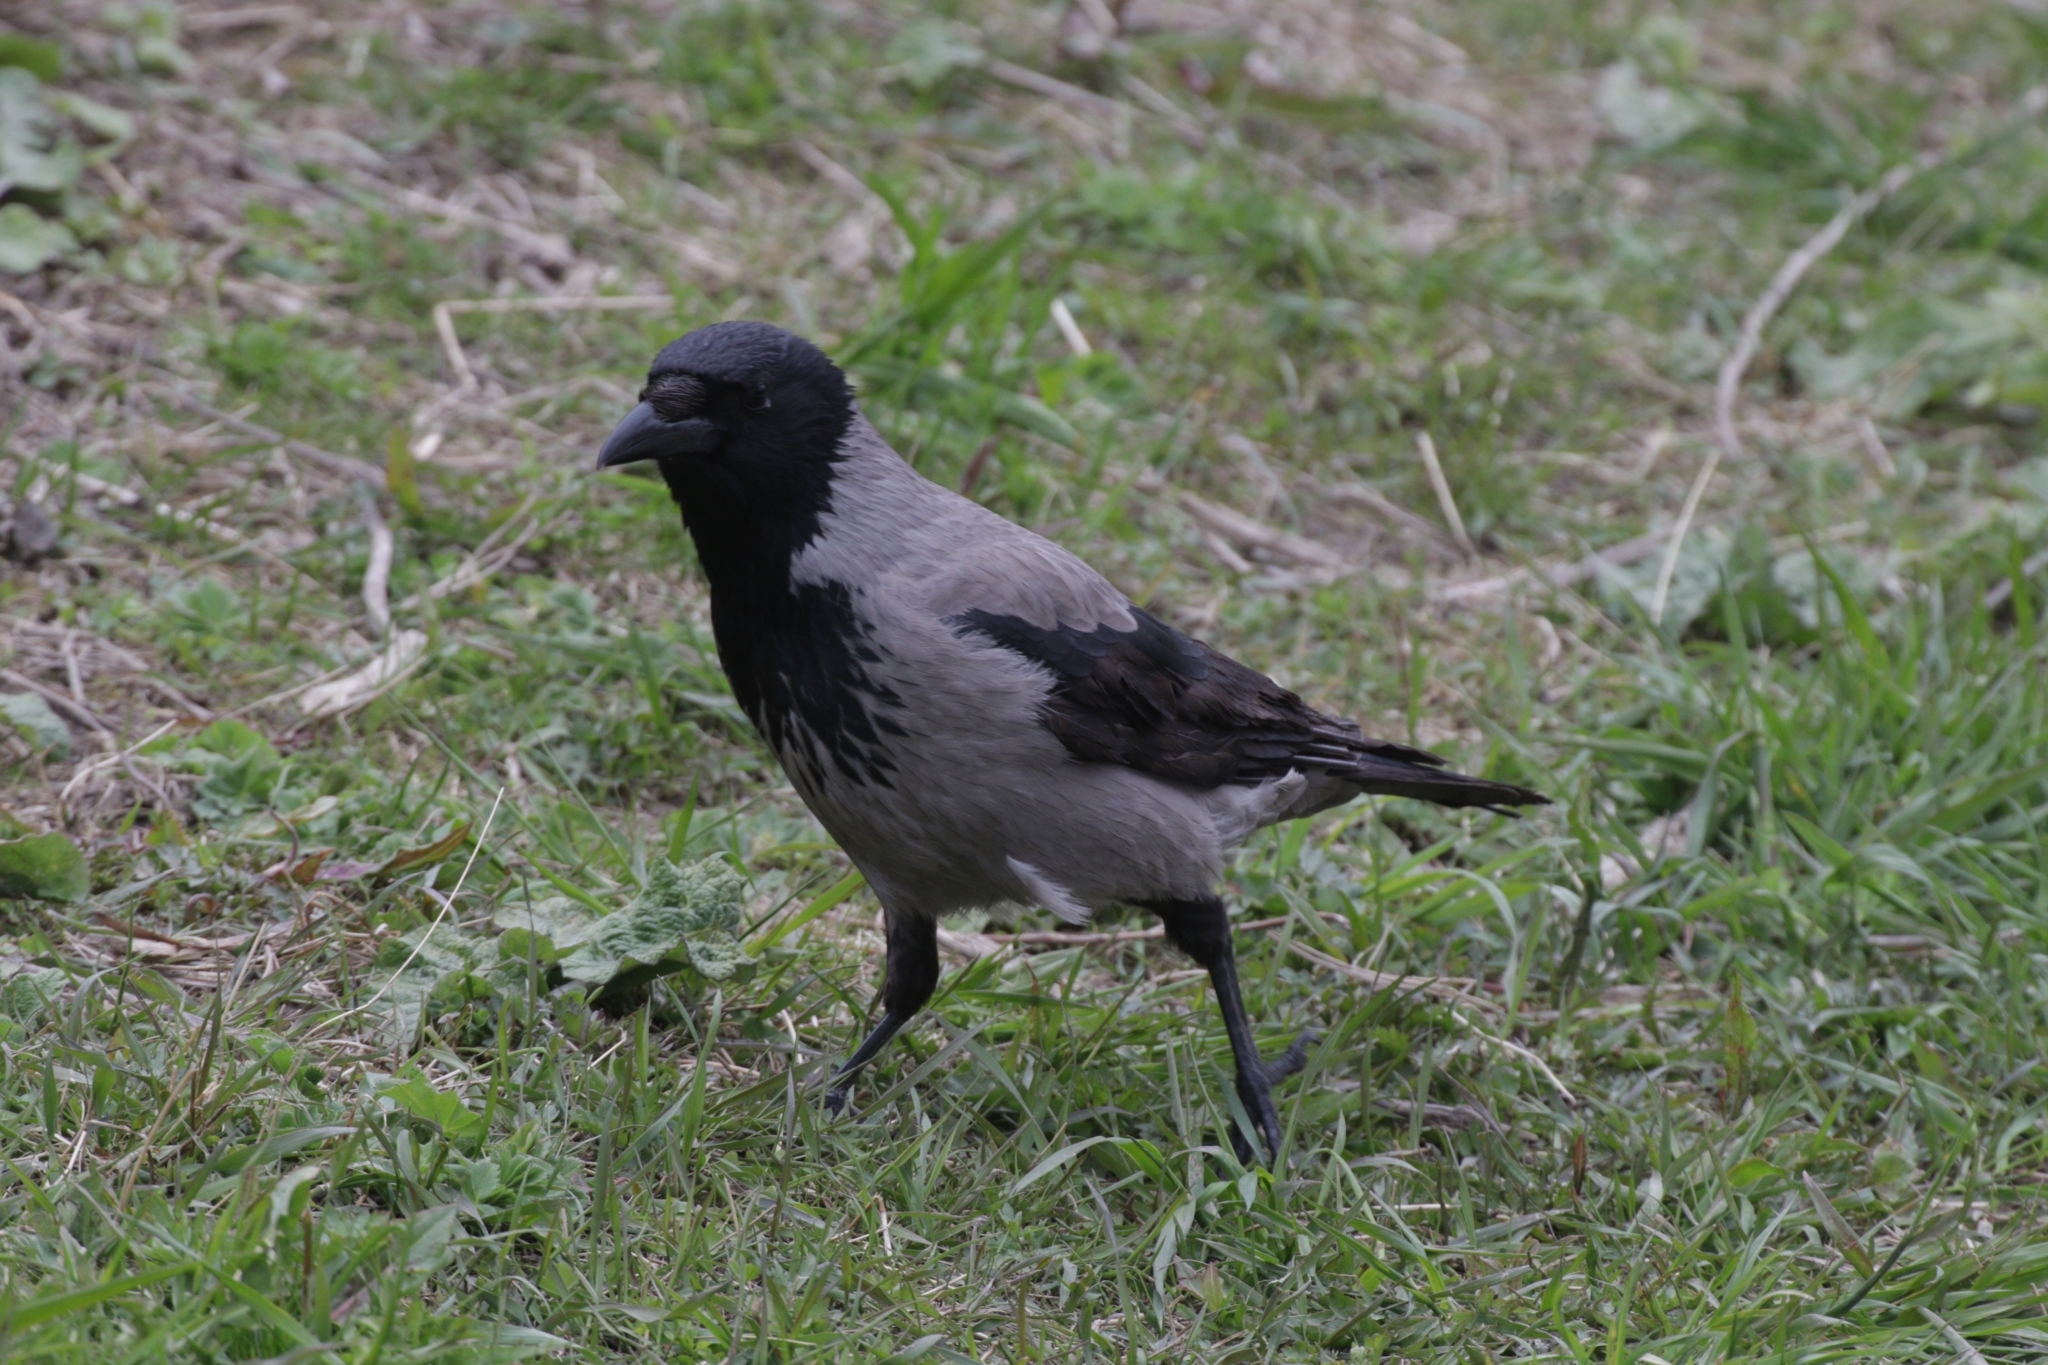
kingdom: Animalia
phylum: Chordata
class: Aves
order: Passeriformes
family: Corvidae
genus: Corvus
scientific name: Corvus cornix
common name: Hooded crow
